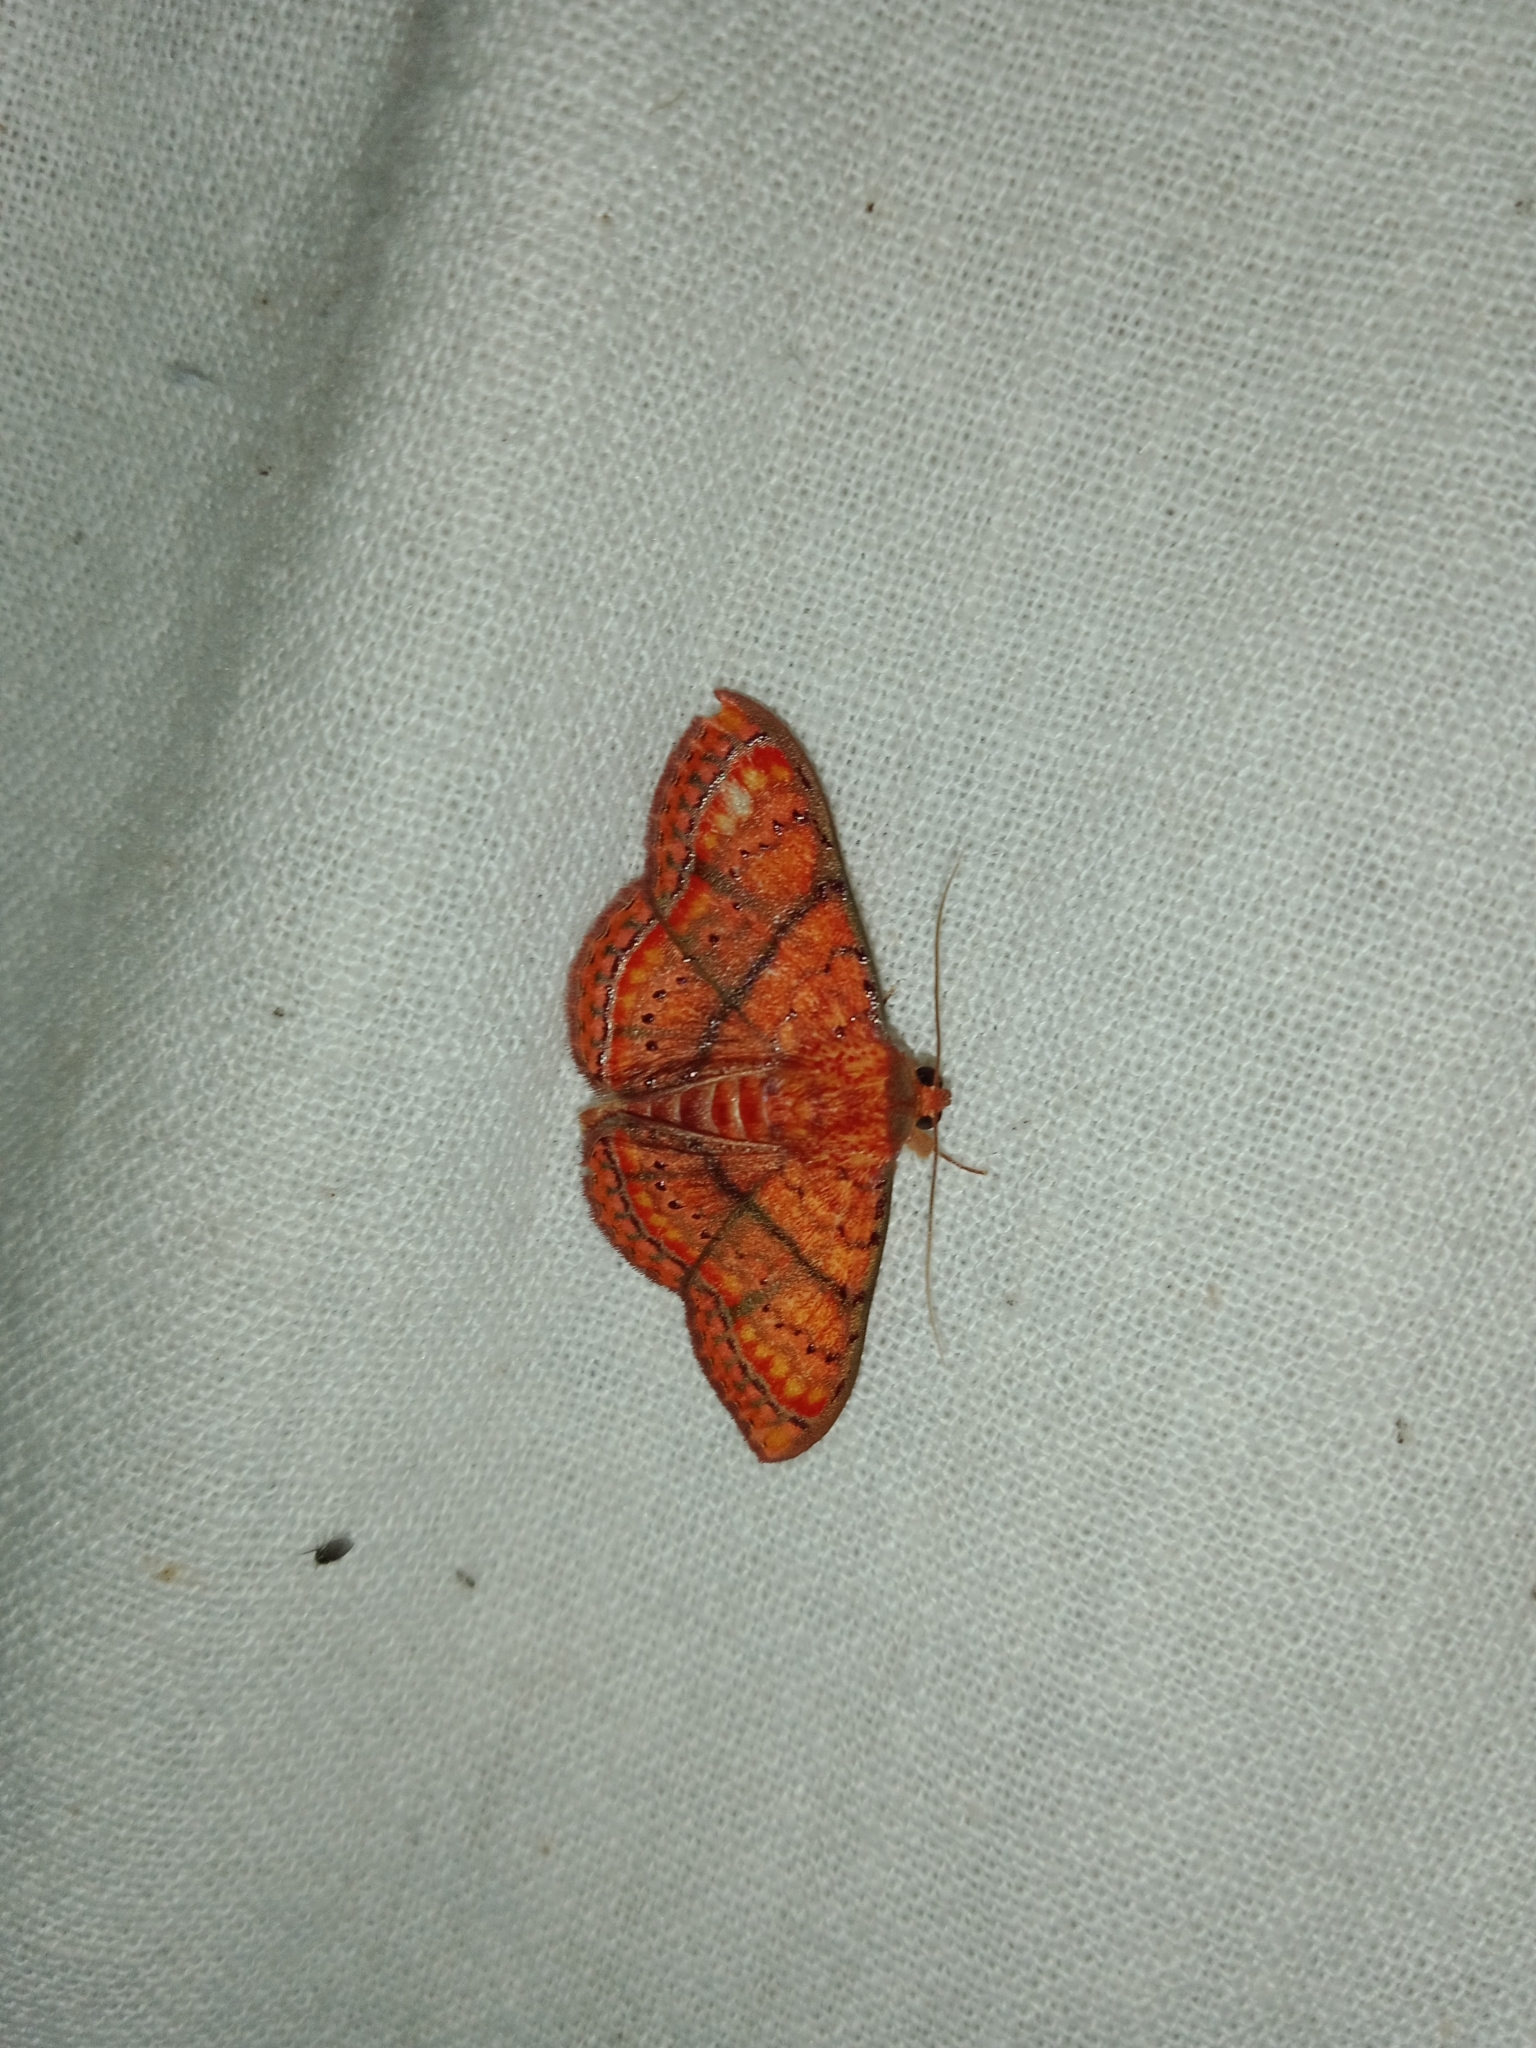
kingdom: Animalia
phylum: Arthropoda
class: Insecta
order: Lepidoptera
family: Erebidae
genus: Homodes
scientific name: Homodes vivida
